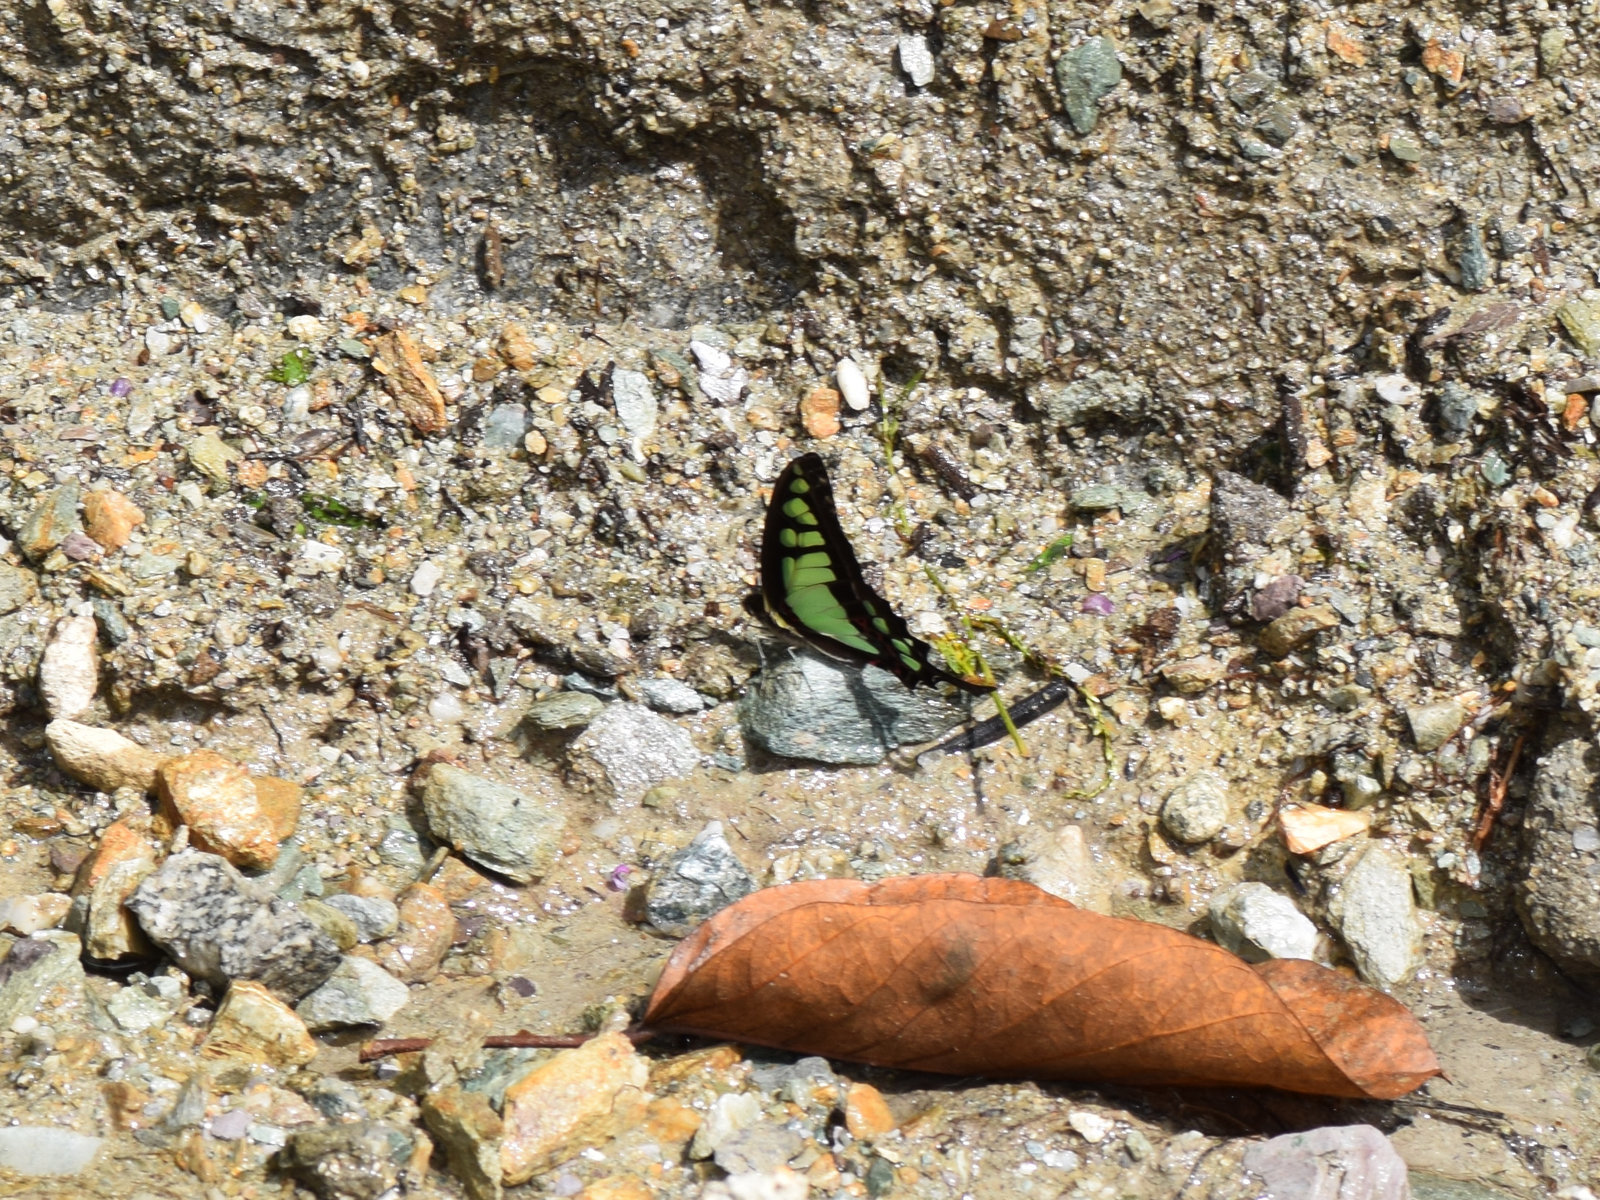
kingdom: Animalia
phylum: Arthropoda
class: Insecta
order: Lepidoptera
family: Papilionidae
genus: Graphium
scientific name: Graphium cloanthus
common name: Glassy bluebottle
